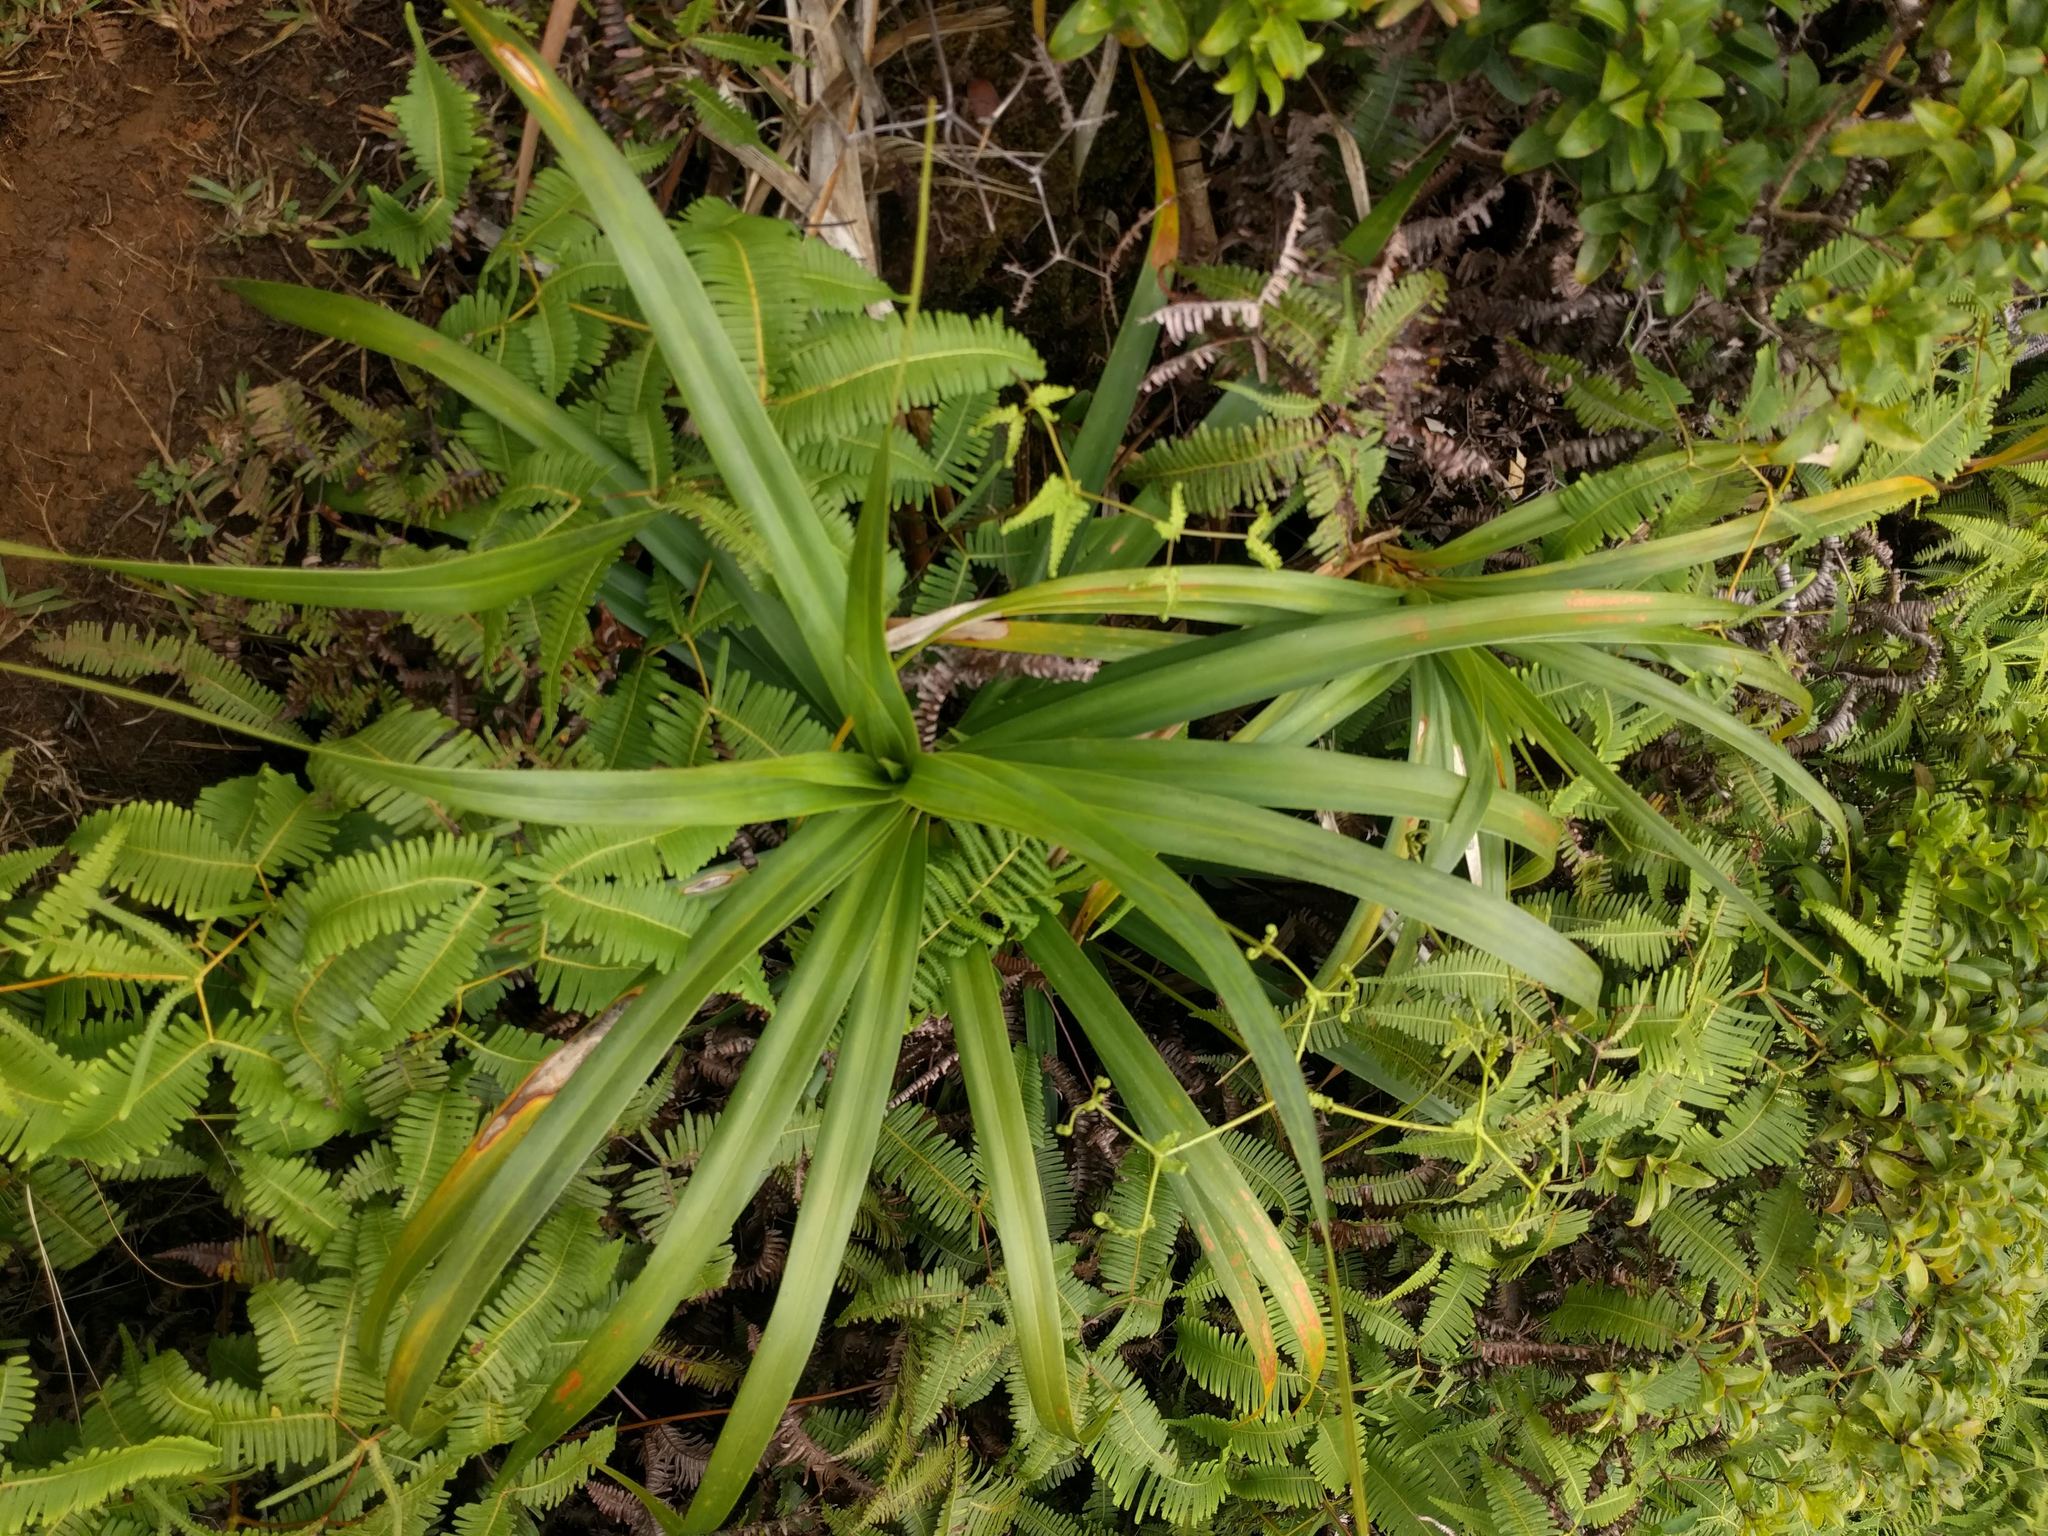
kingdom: Plantae
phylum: Tracheophyta
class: Liliopsida
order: Pandanales
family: Pandanaceae
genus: Freycinetia
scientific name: Freycinetia arborea
